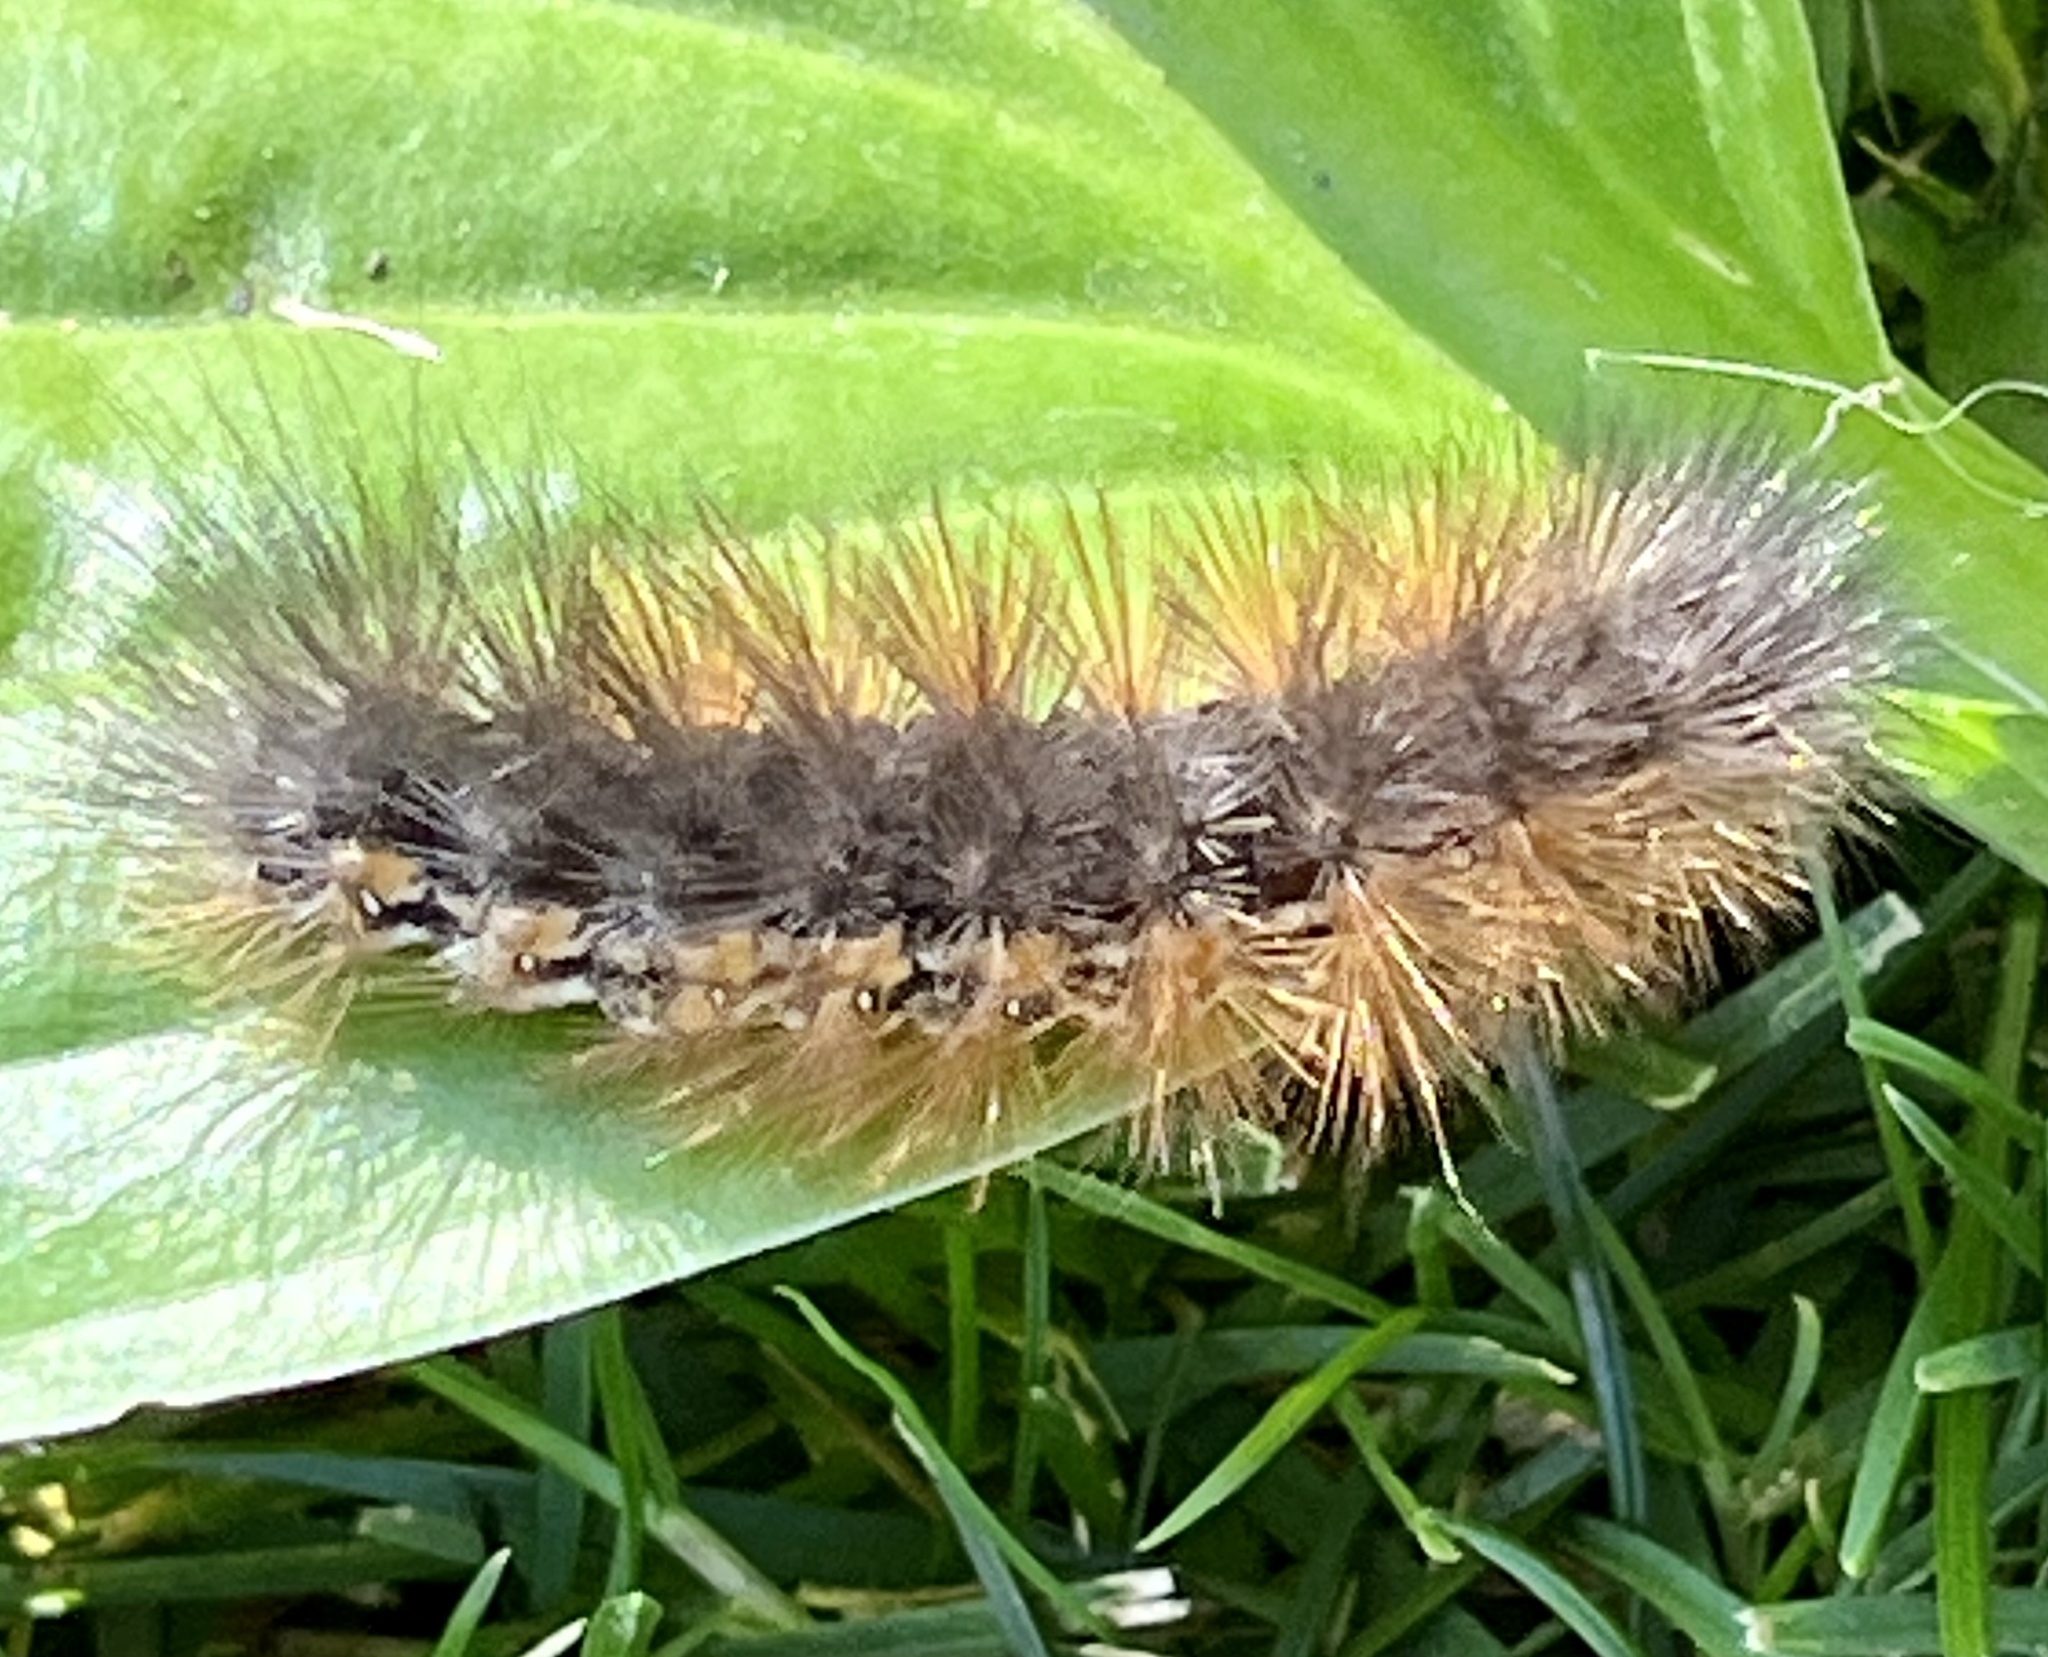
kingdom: Animalia
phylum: Arthropoda
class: Insecta
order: Lepidoptera
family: Erebidae
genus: Estigmene
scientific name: Estigmene acrea
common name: Salt marsh moth
